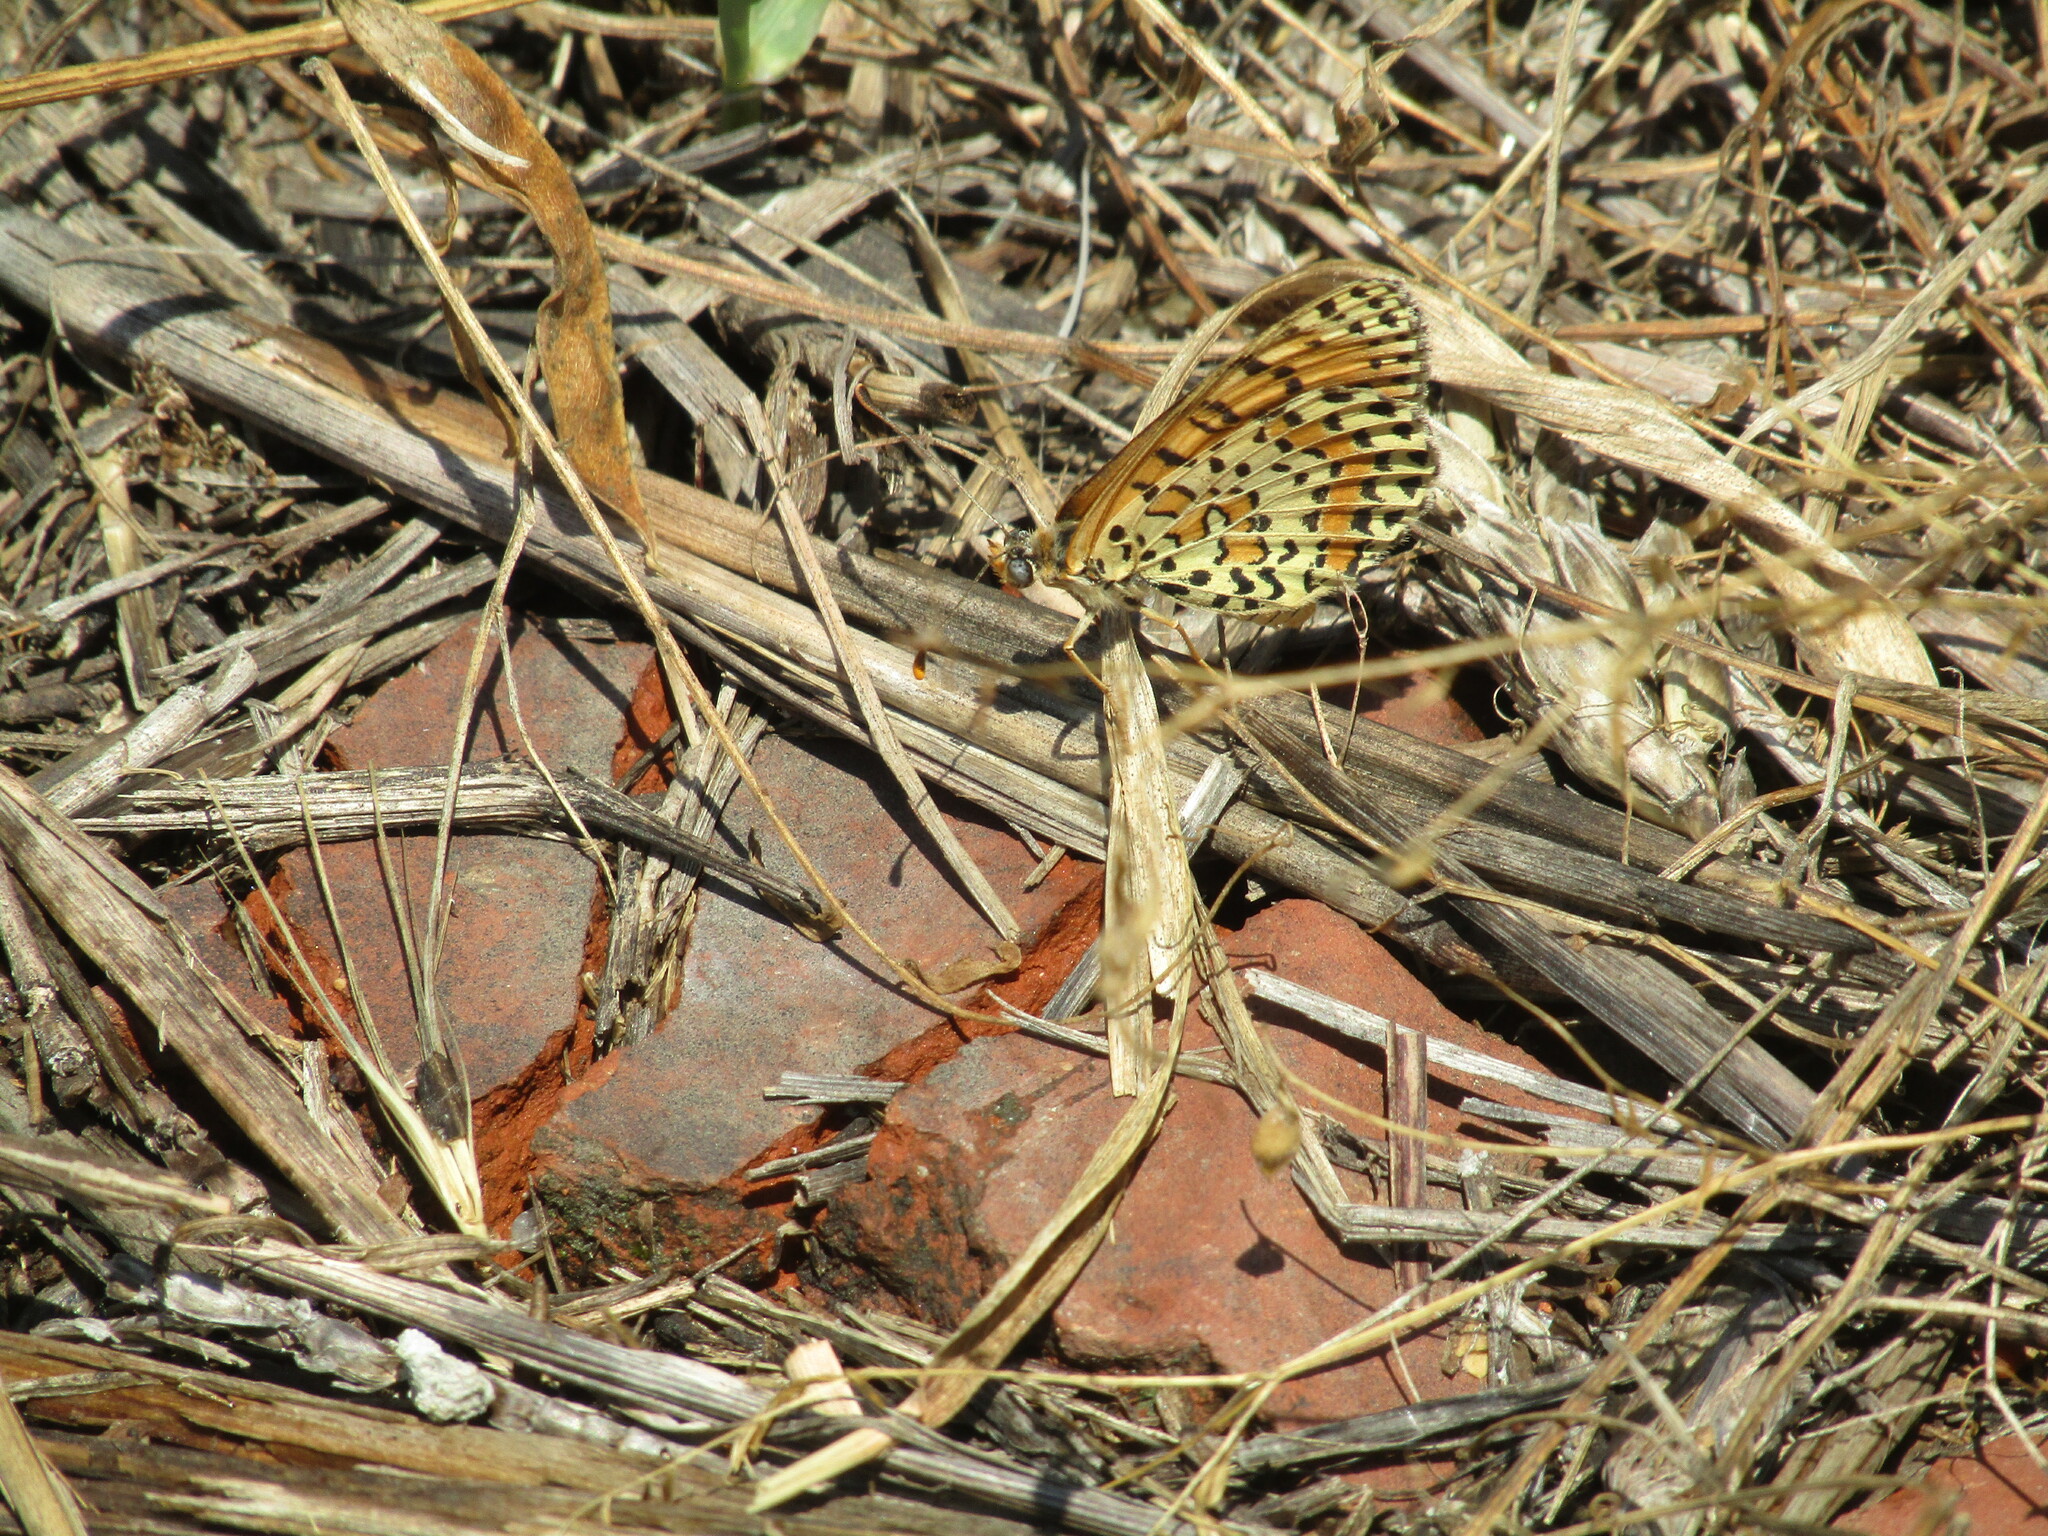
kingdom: Animalia
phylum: Arthropoda
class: Insecta
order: Lepidoptera
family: Nymphalidae
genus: Melitaea
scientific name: Melitaea didyma
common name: Spotted fritillary
